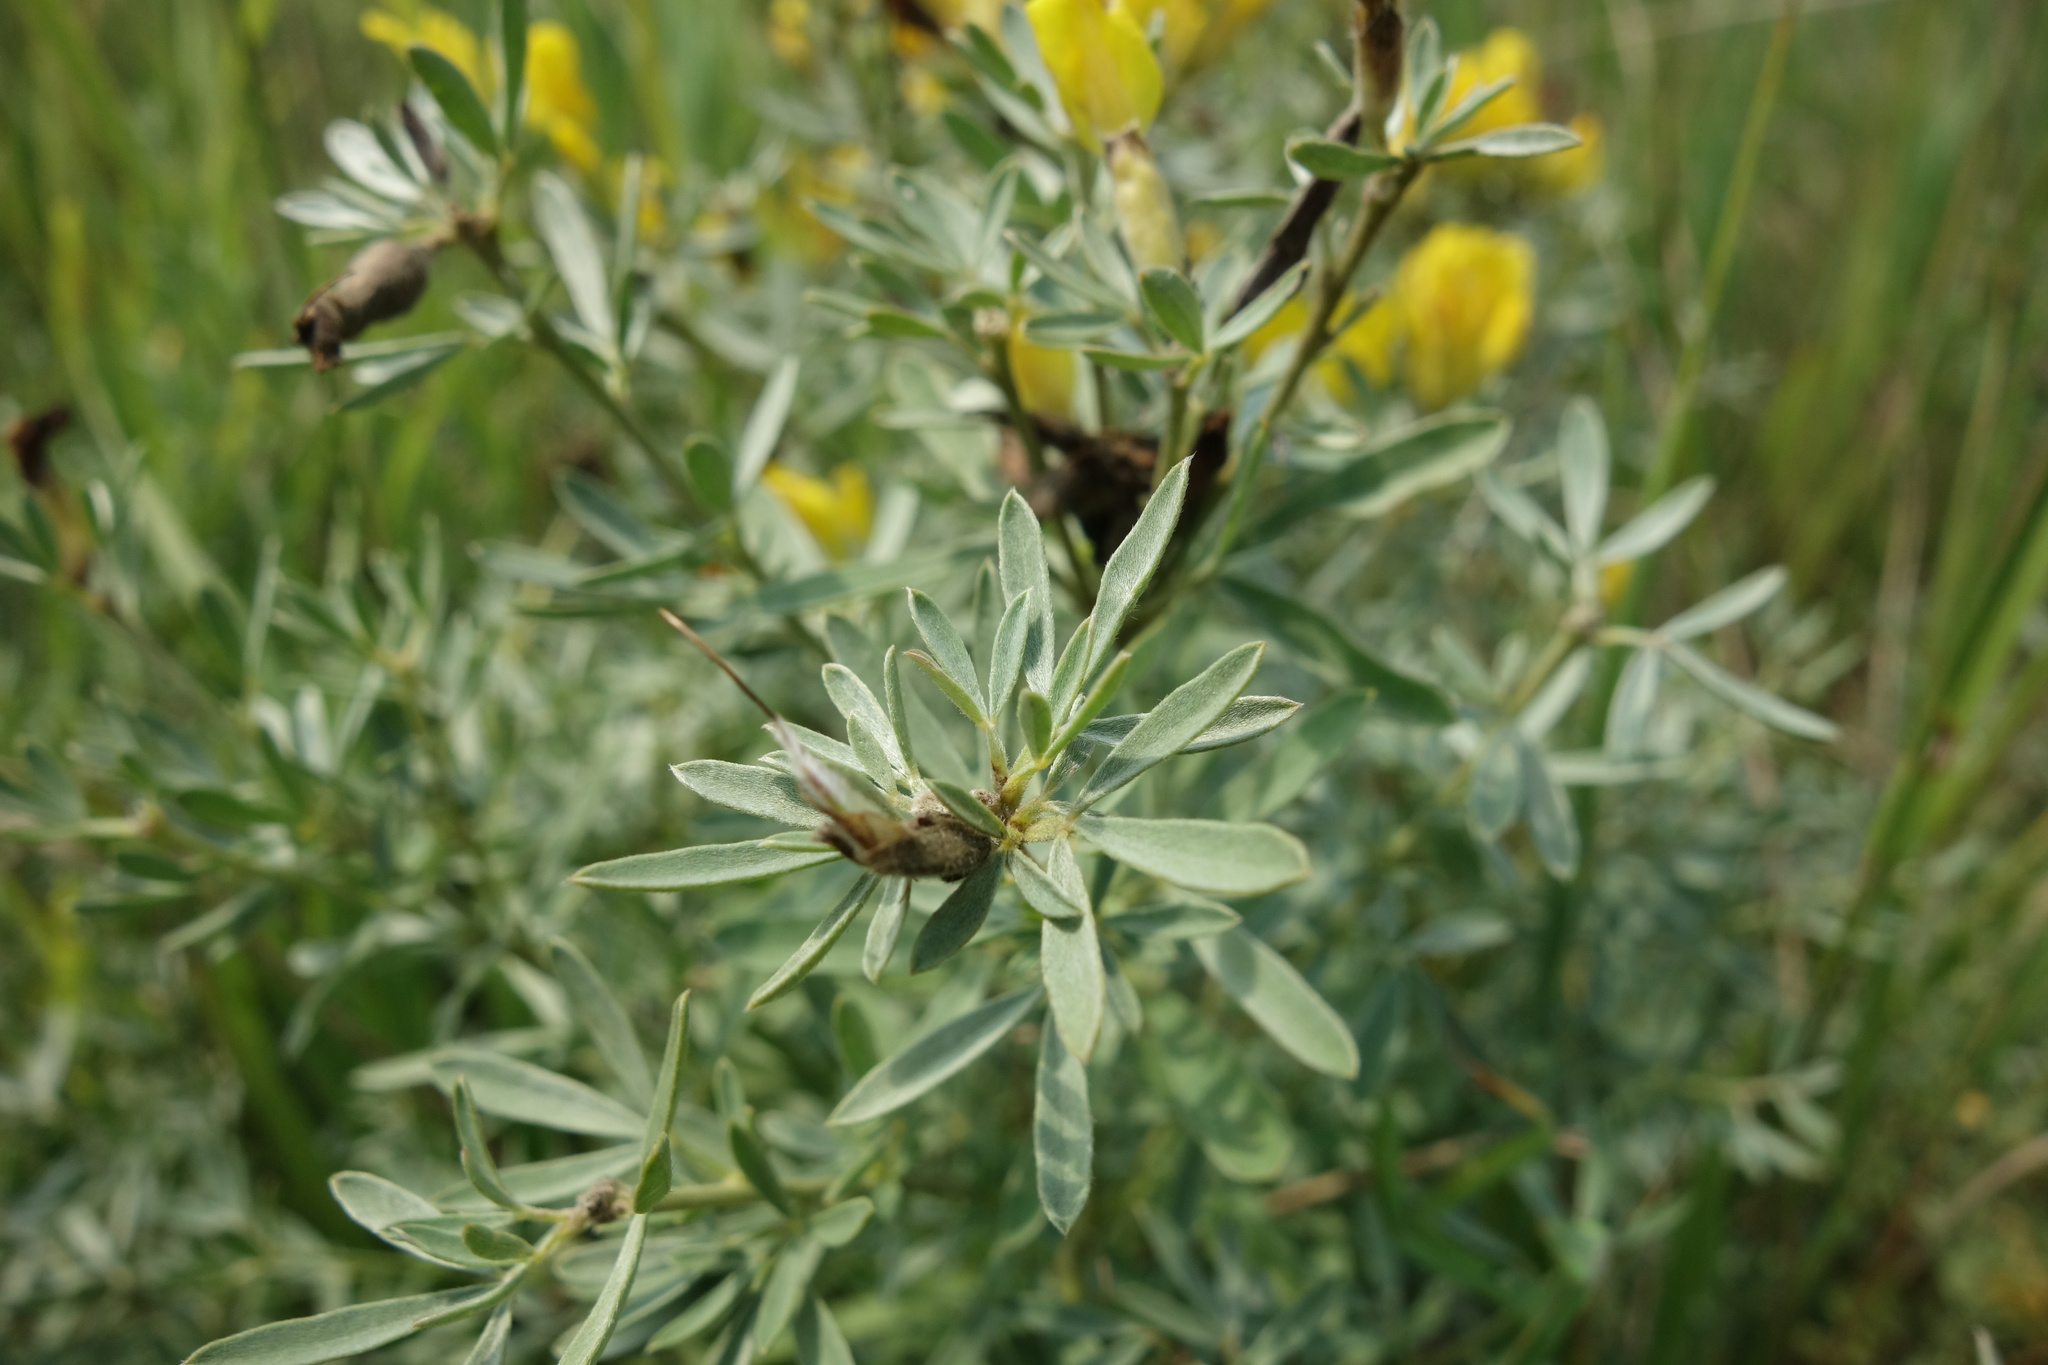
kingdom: Plantae
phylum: Tracheophyta
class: Magnoliopsida
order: Fabales
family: Fabaceae
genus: Chamaecytisus
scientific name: Chamaecytisus austriacus
